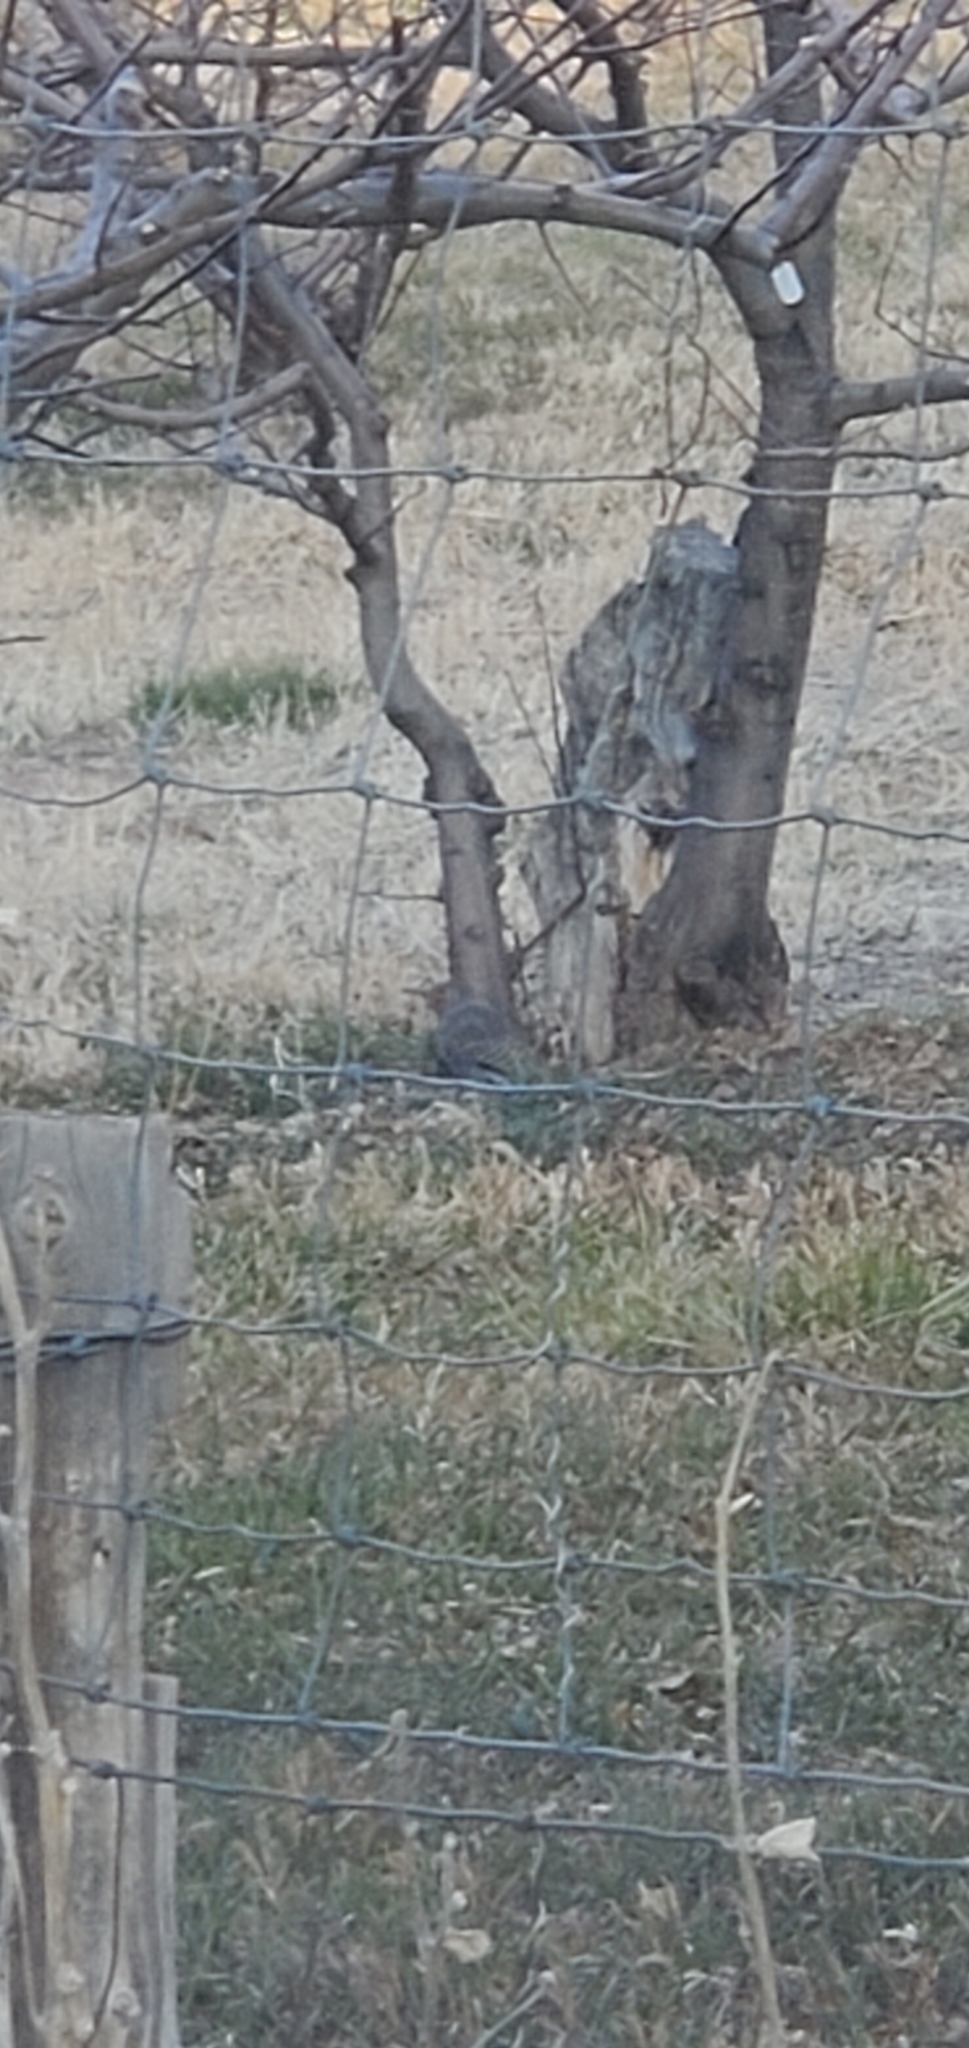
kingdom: Animalia
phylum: Chordata
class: Aves
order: Piciformes
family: Picidae
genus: Colaptes
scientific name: Colaptes auratus
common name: Northern flicker
